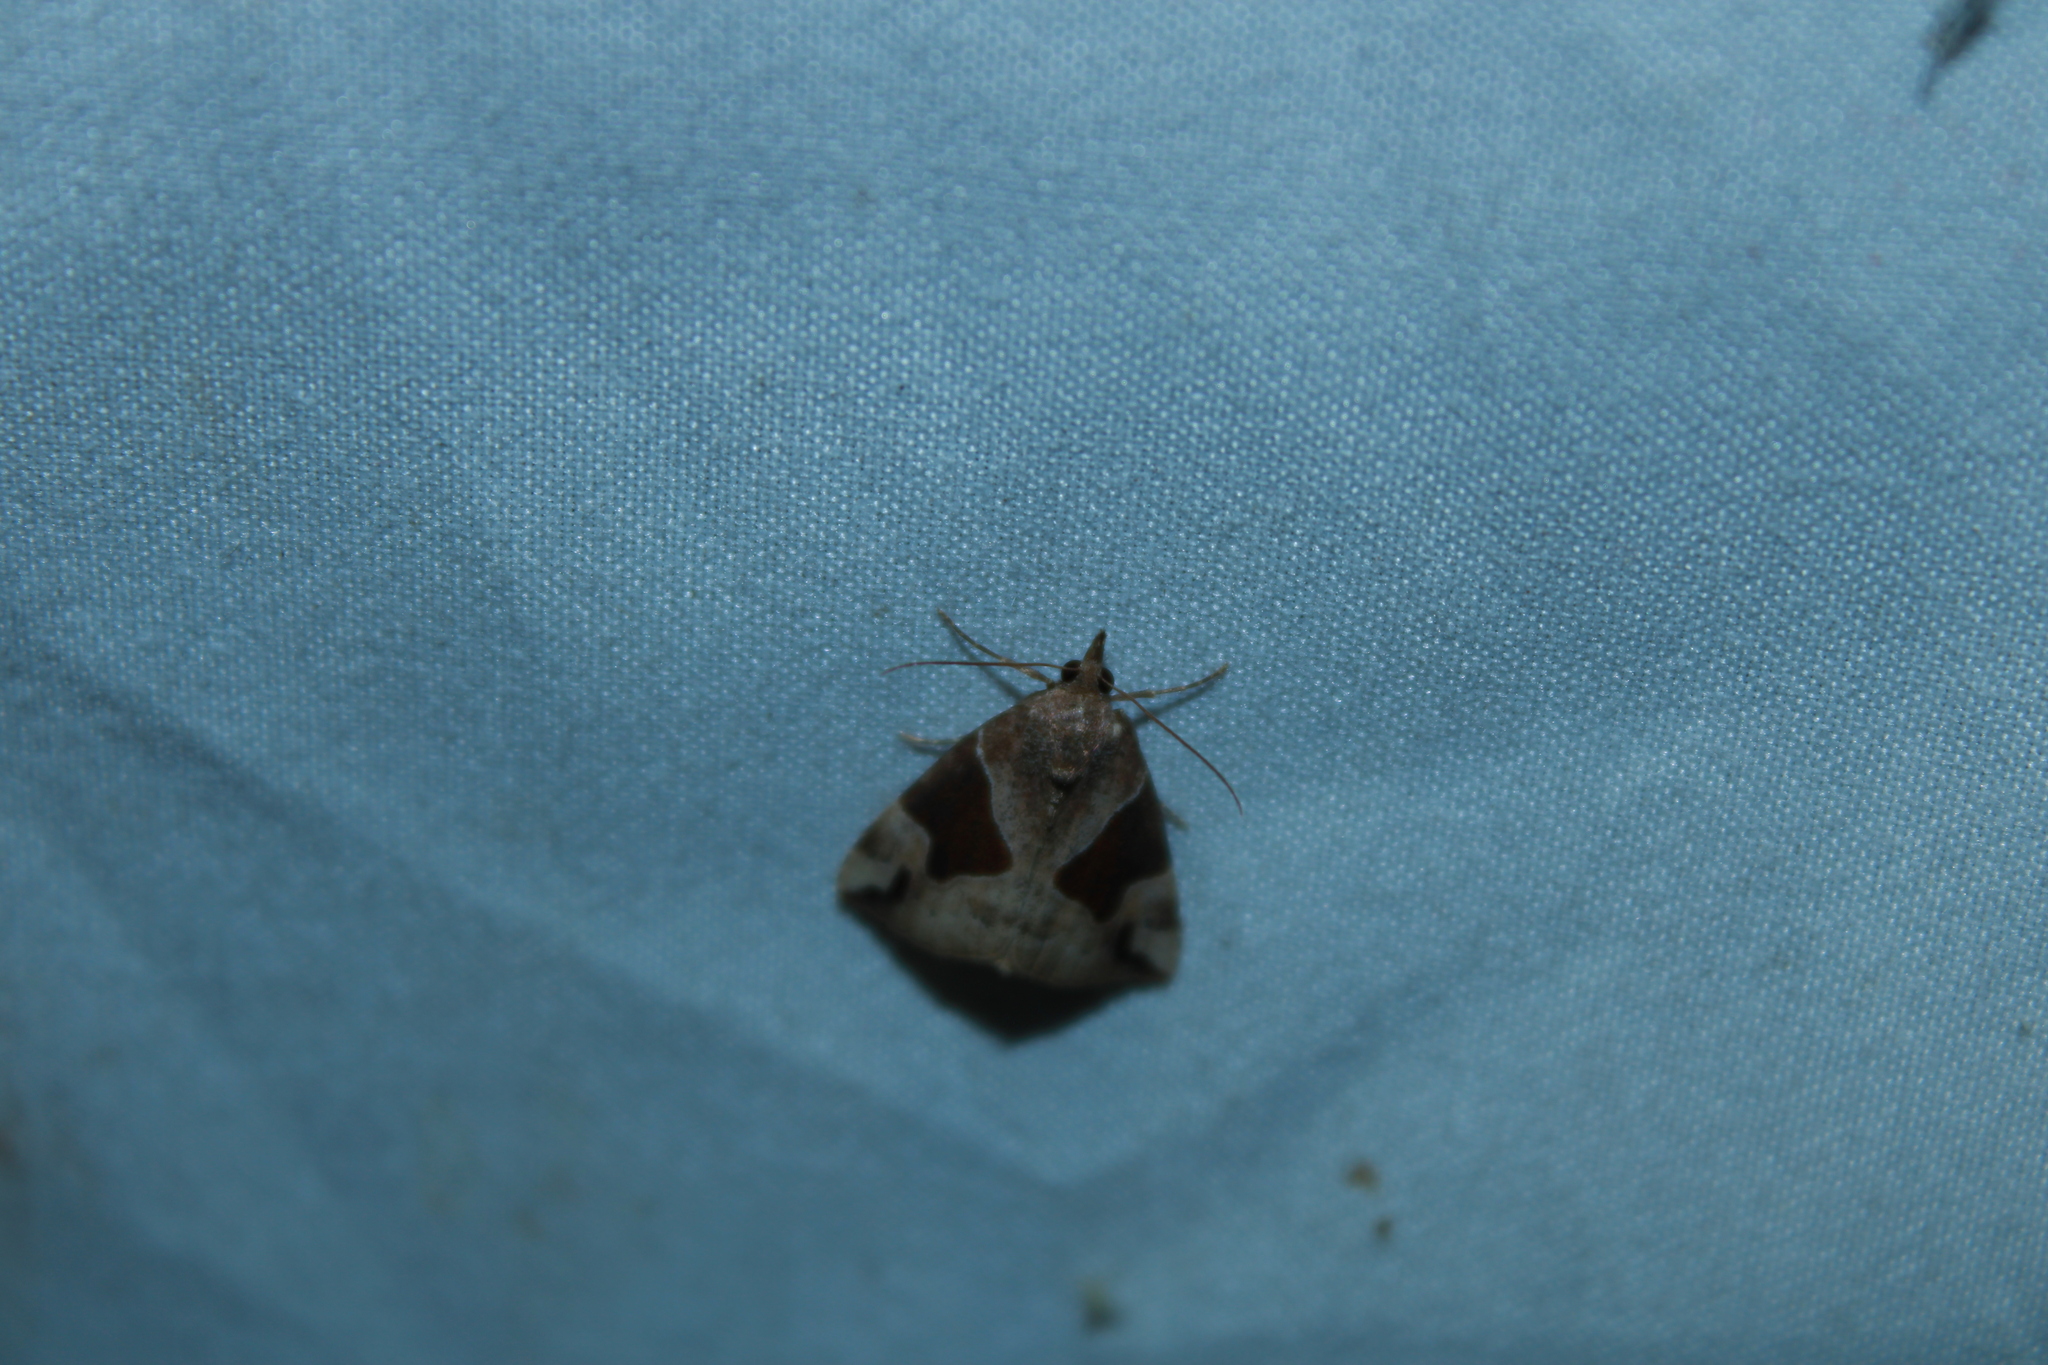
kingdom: Animalia
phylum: Arthropoda
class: Insecta
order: Lepidoptera
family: Erebidae
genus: Hypena
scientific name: Hypena manalis
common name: Flowing-line bomolocha moth
